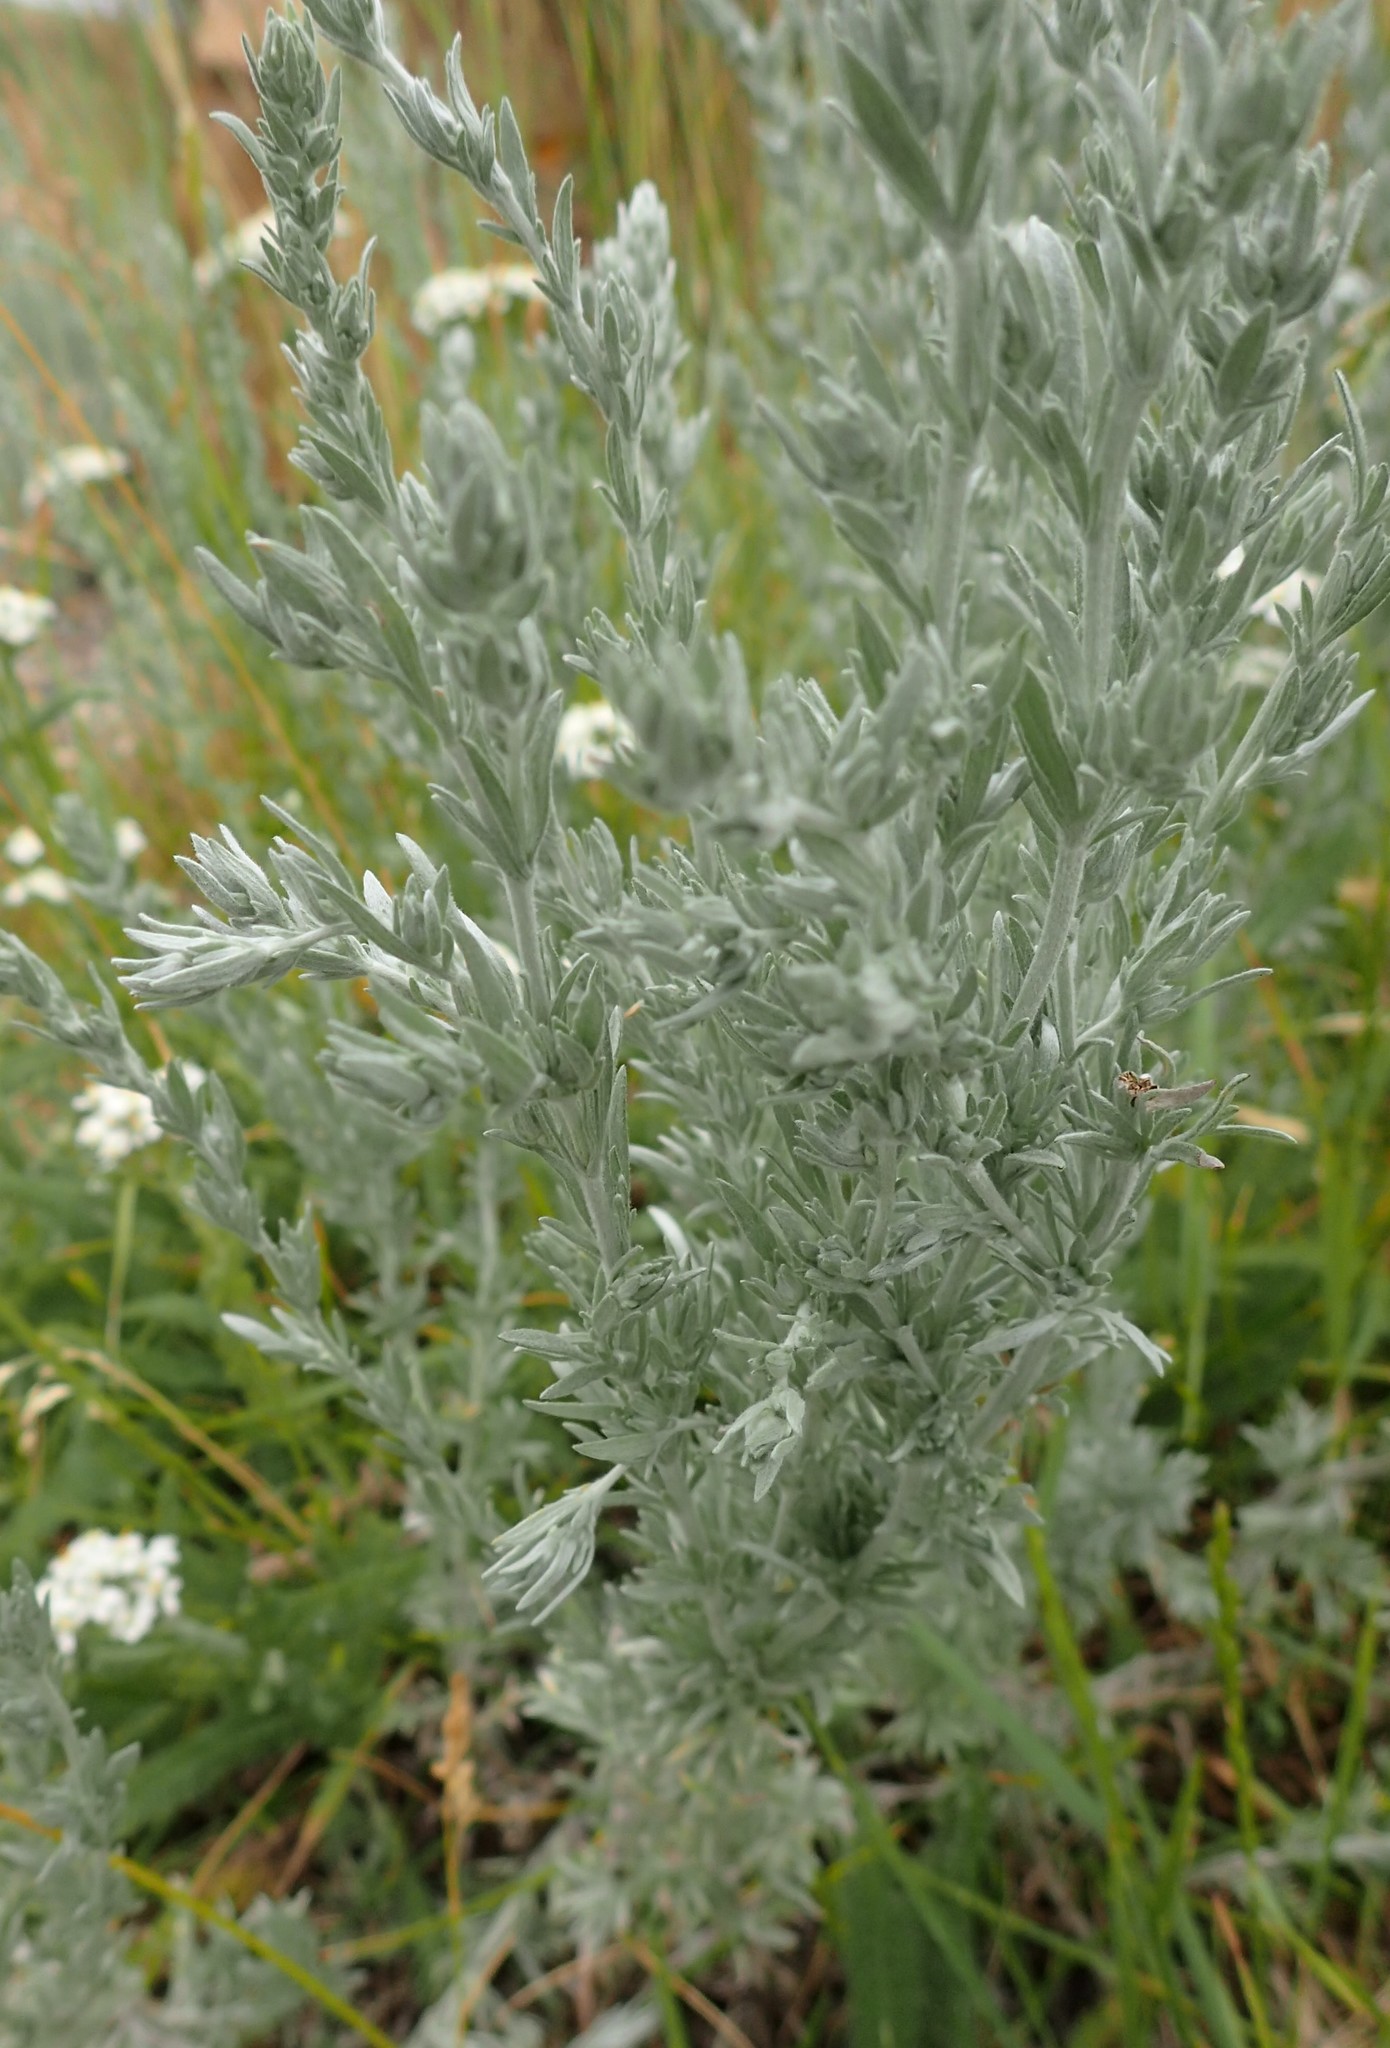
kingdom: Plantae
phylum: Tracheophyta
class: Magnoliopsida
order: Asterales
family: Asteraceae
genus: Artemisia
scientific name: Artemisia frigida
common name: Prairie sagewort
